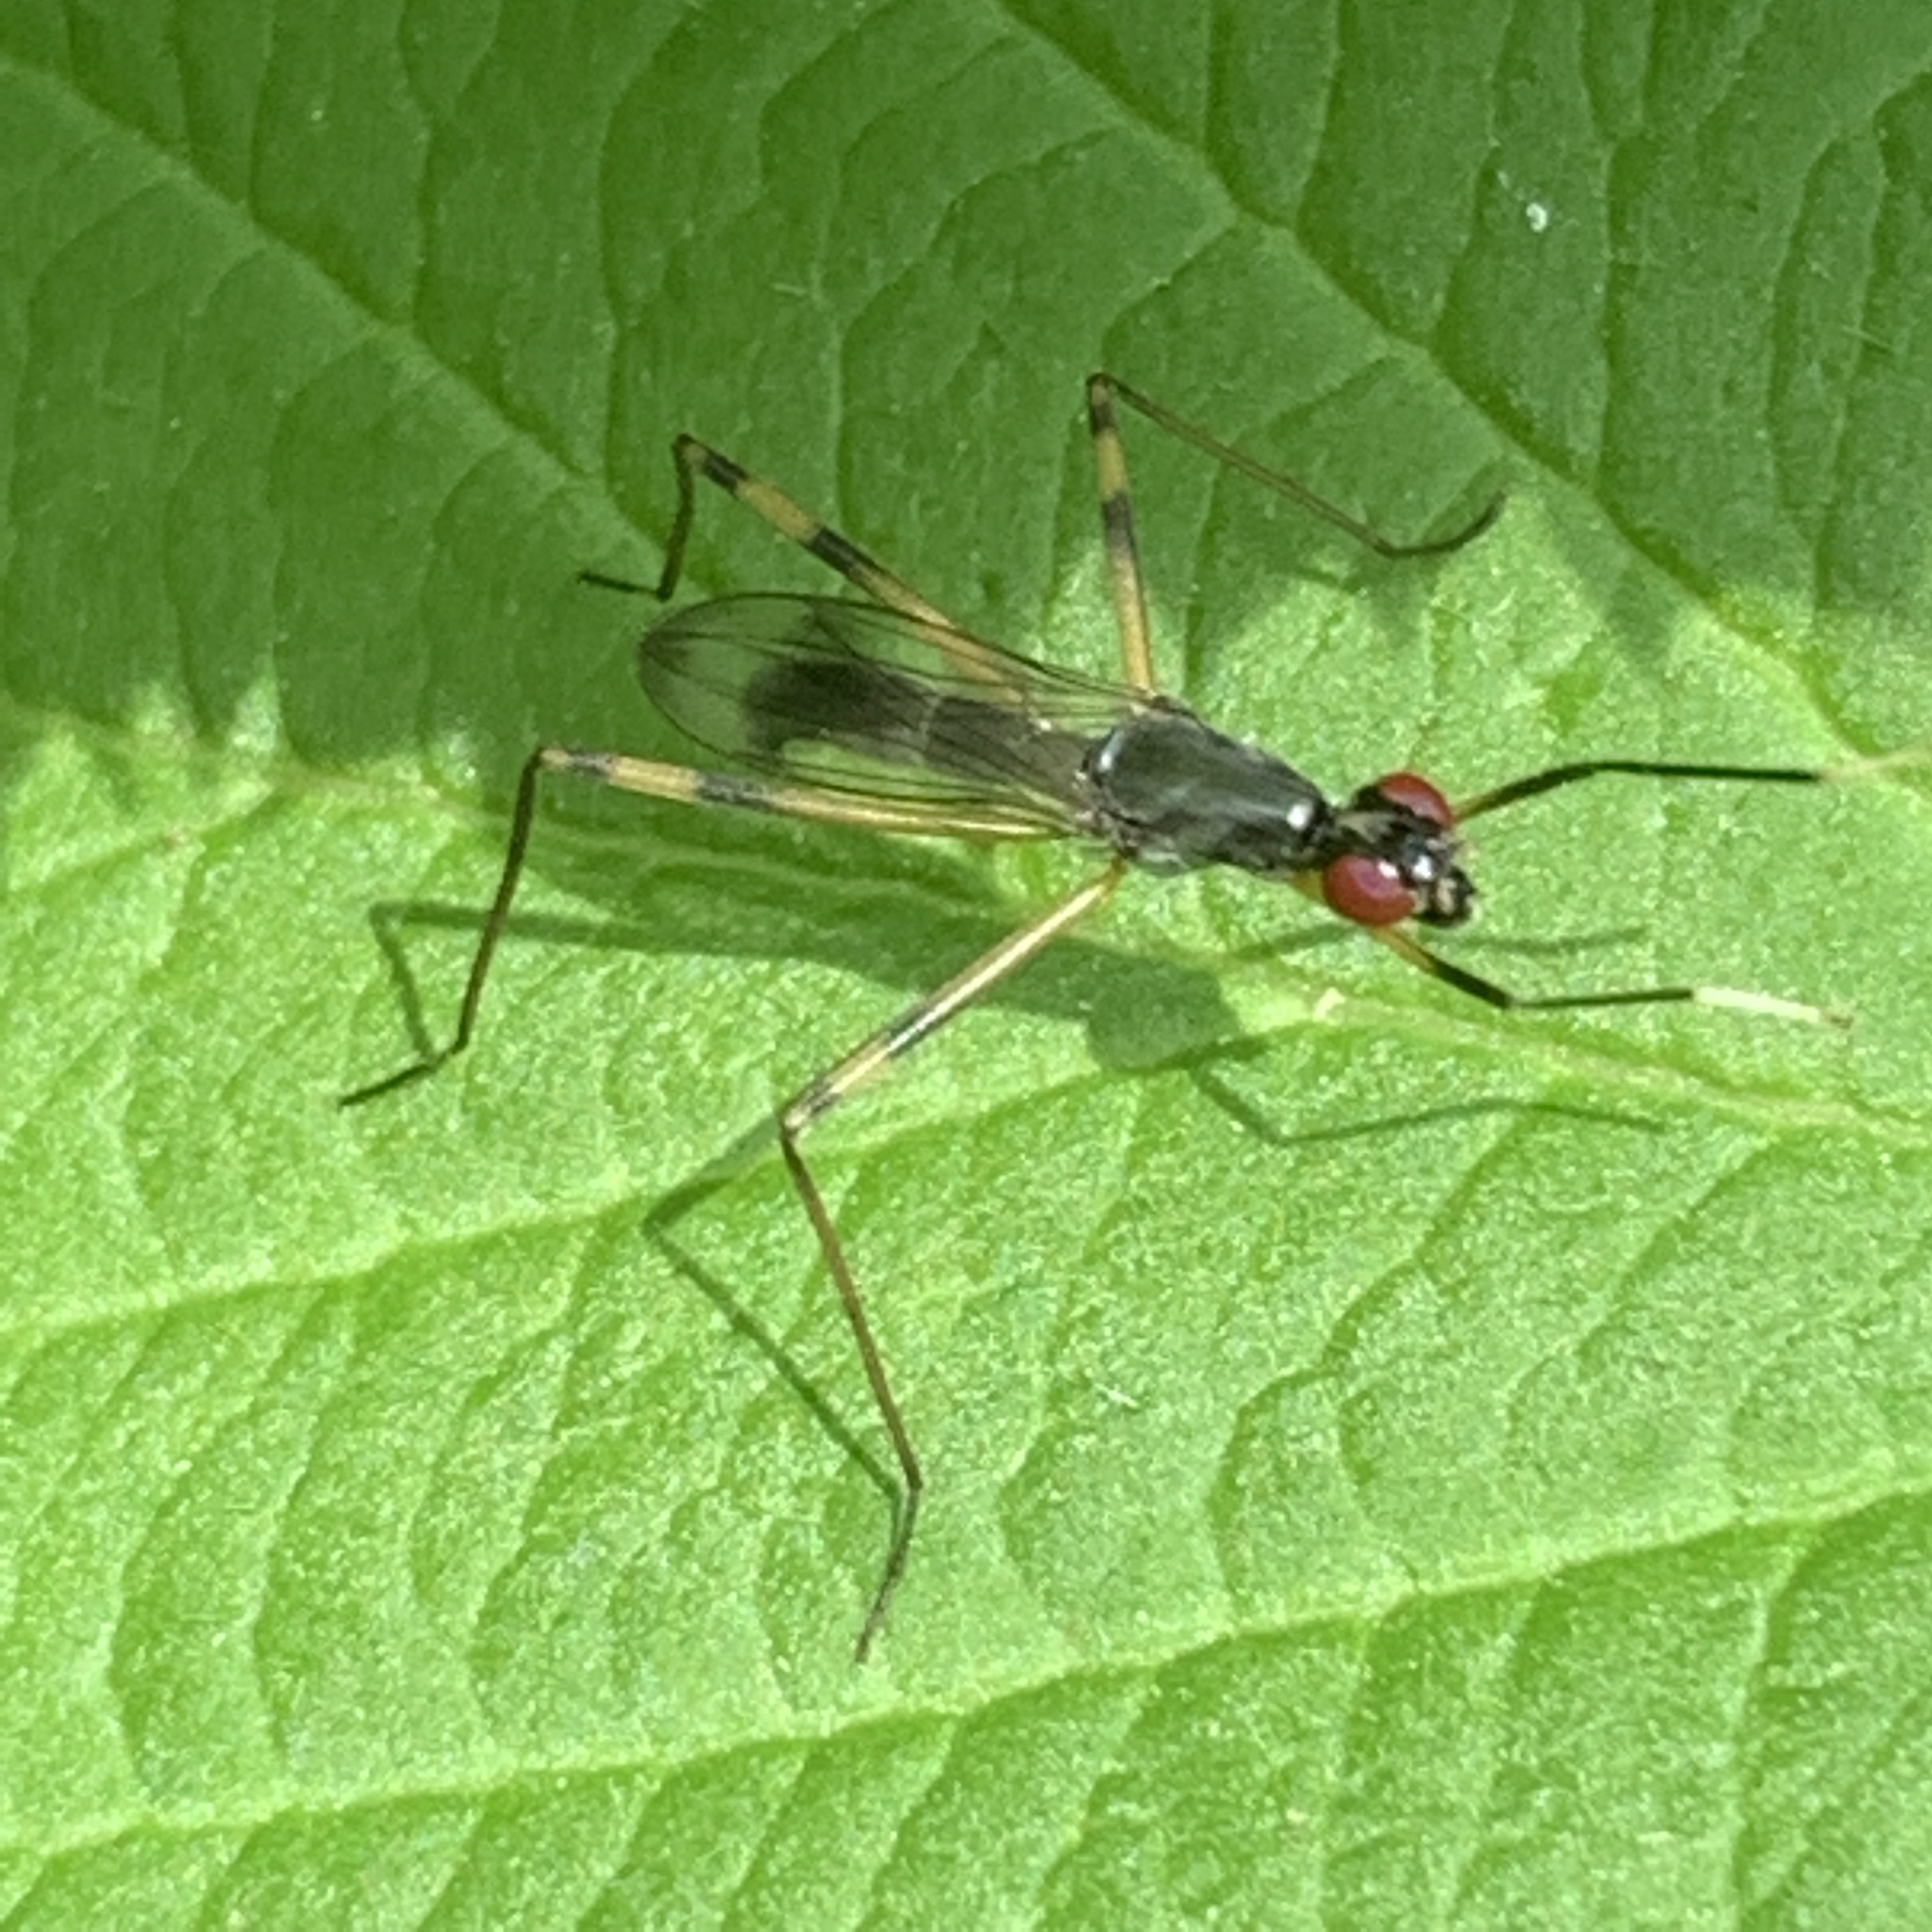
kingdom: Animalia
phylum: Arthropoda
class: Insecta
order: Diptera
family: Micropezidae
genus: Rainieria
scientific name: Rainieria antennaepes
